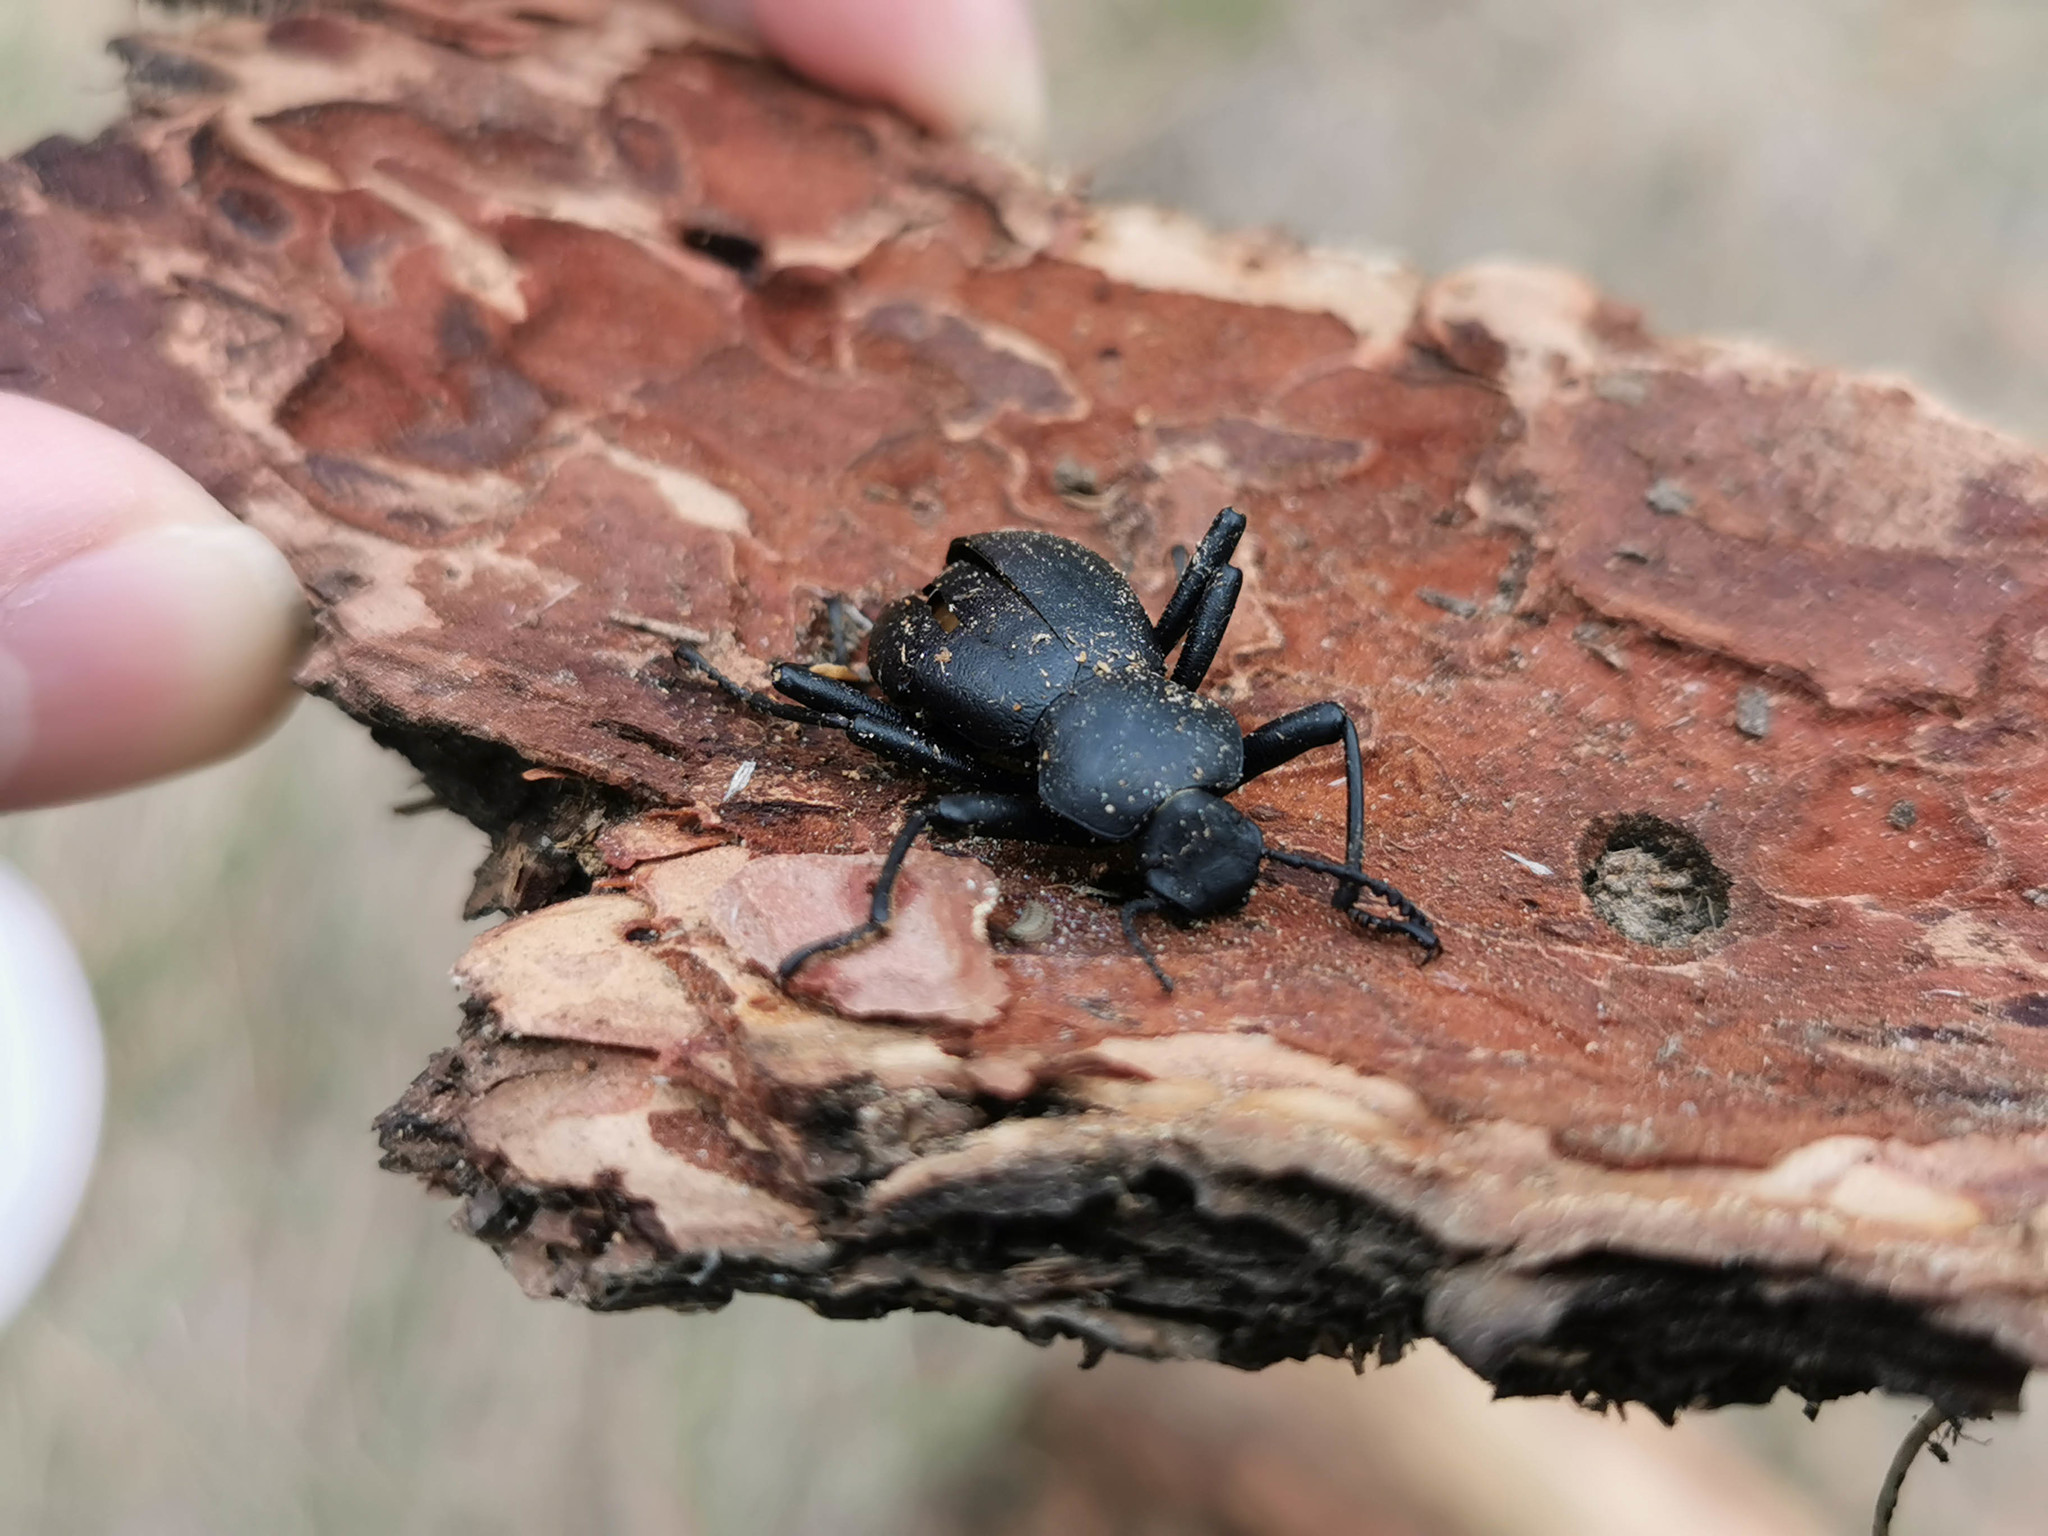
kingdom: Animalia
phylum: Arthropoda
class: Insecta
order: Coleoptera
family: Tenebrionidae
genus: Coelocnemis
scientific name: Coelocnemis dilaticollis
